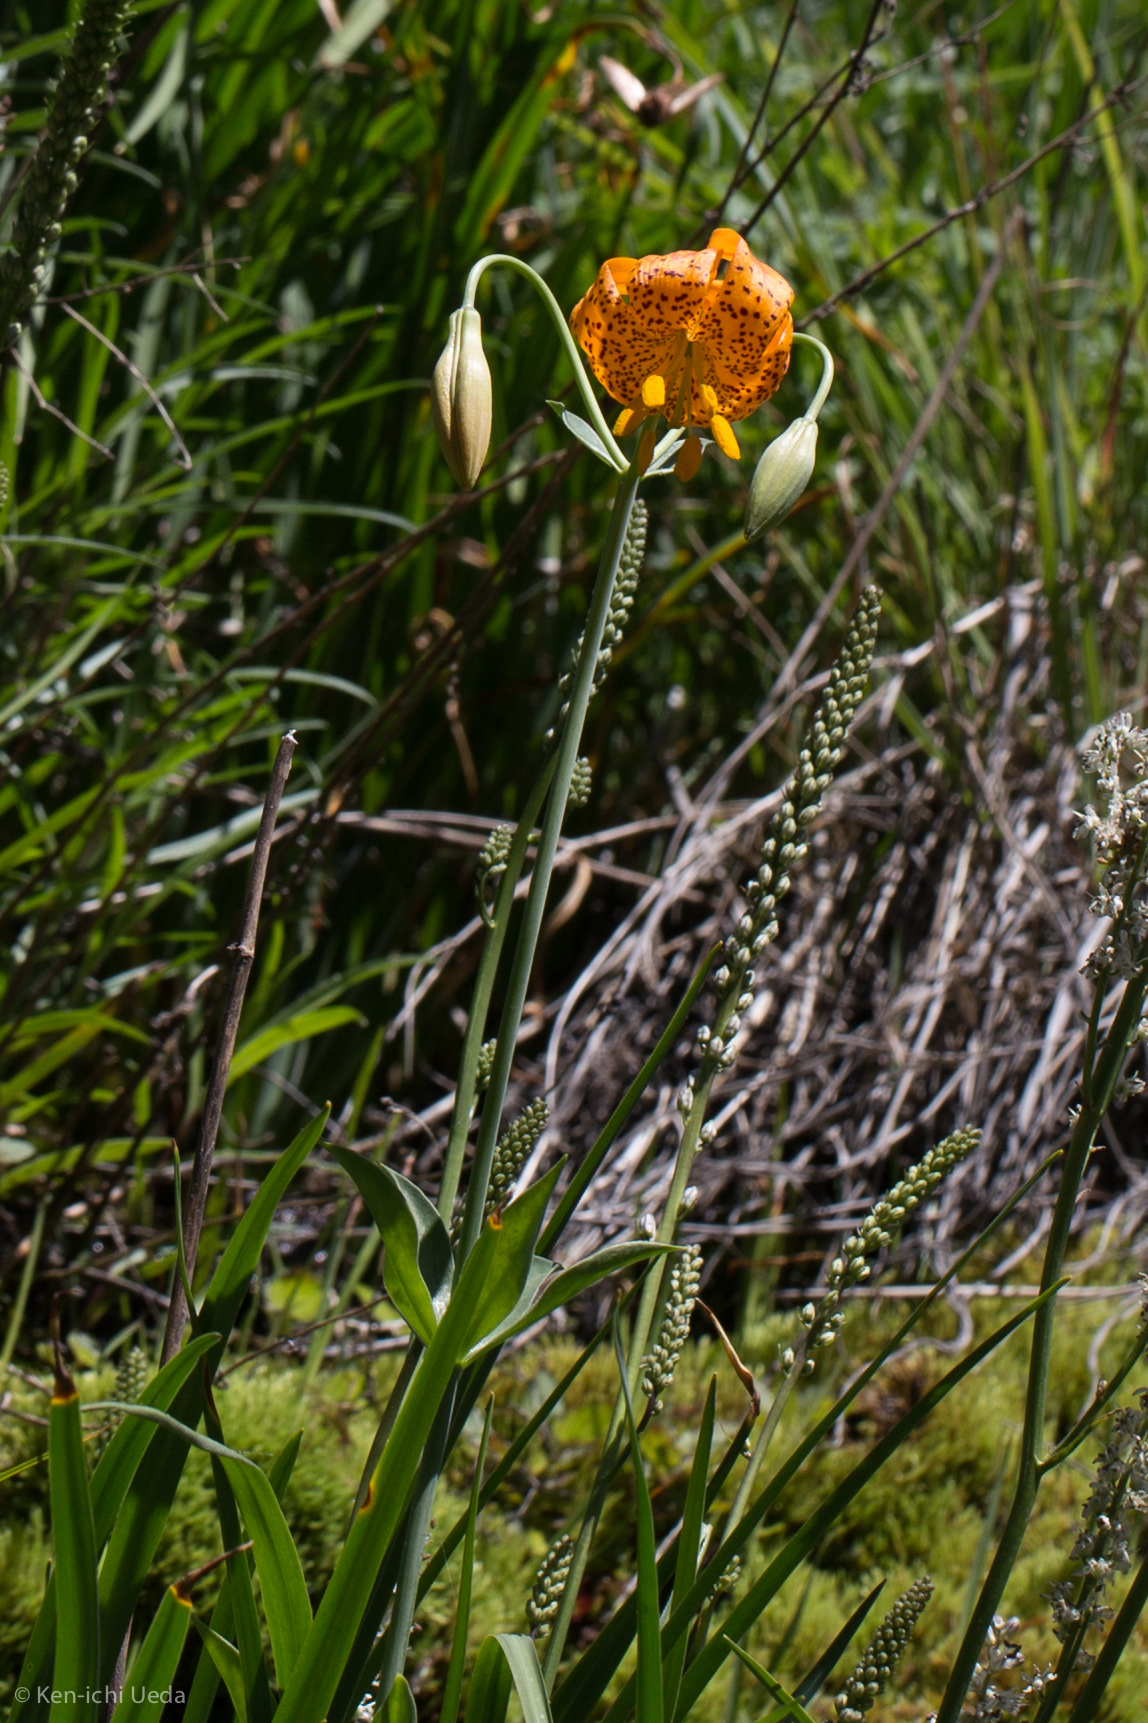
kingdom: Plantae
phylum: Tracheophyta
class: Liliopsida
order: Liliales
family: Liliaceae
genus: Lilium
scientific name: Lilium pardalinum
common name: Panther lily
